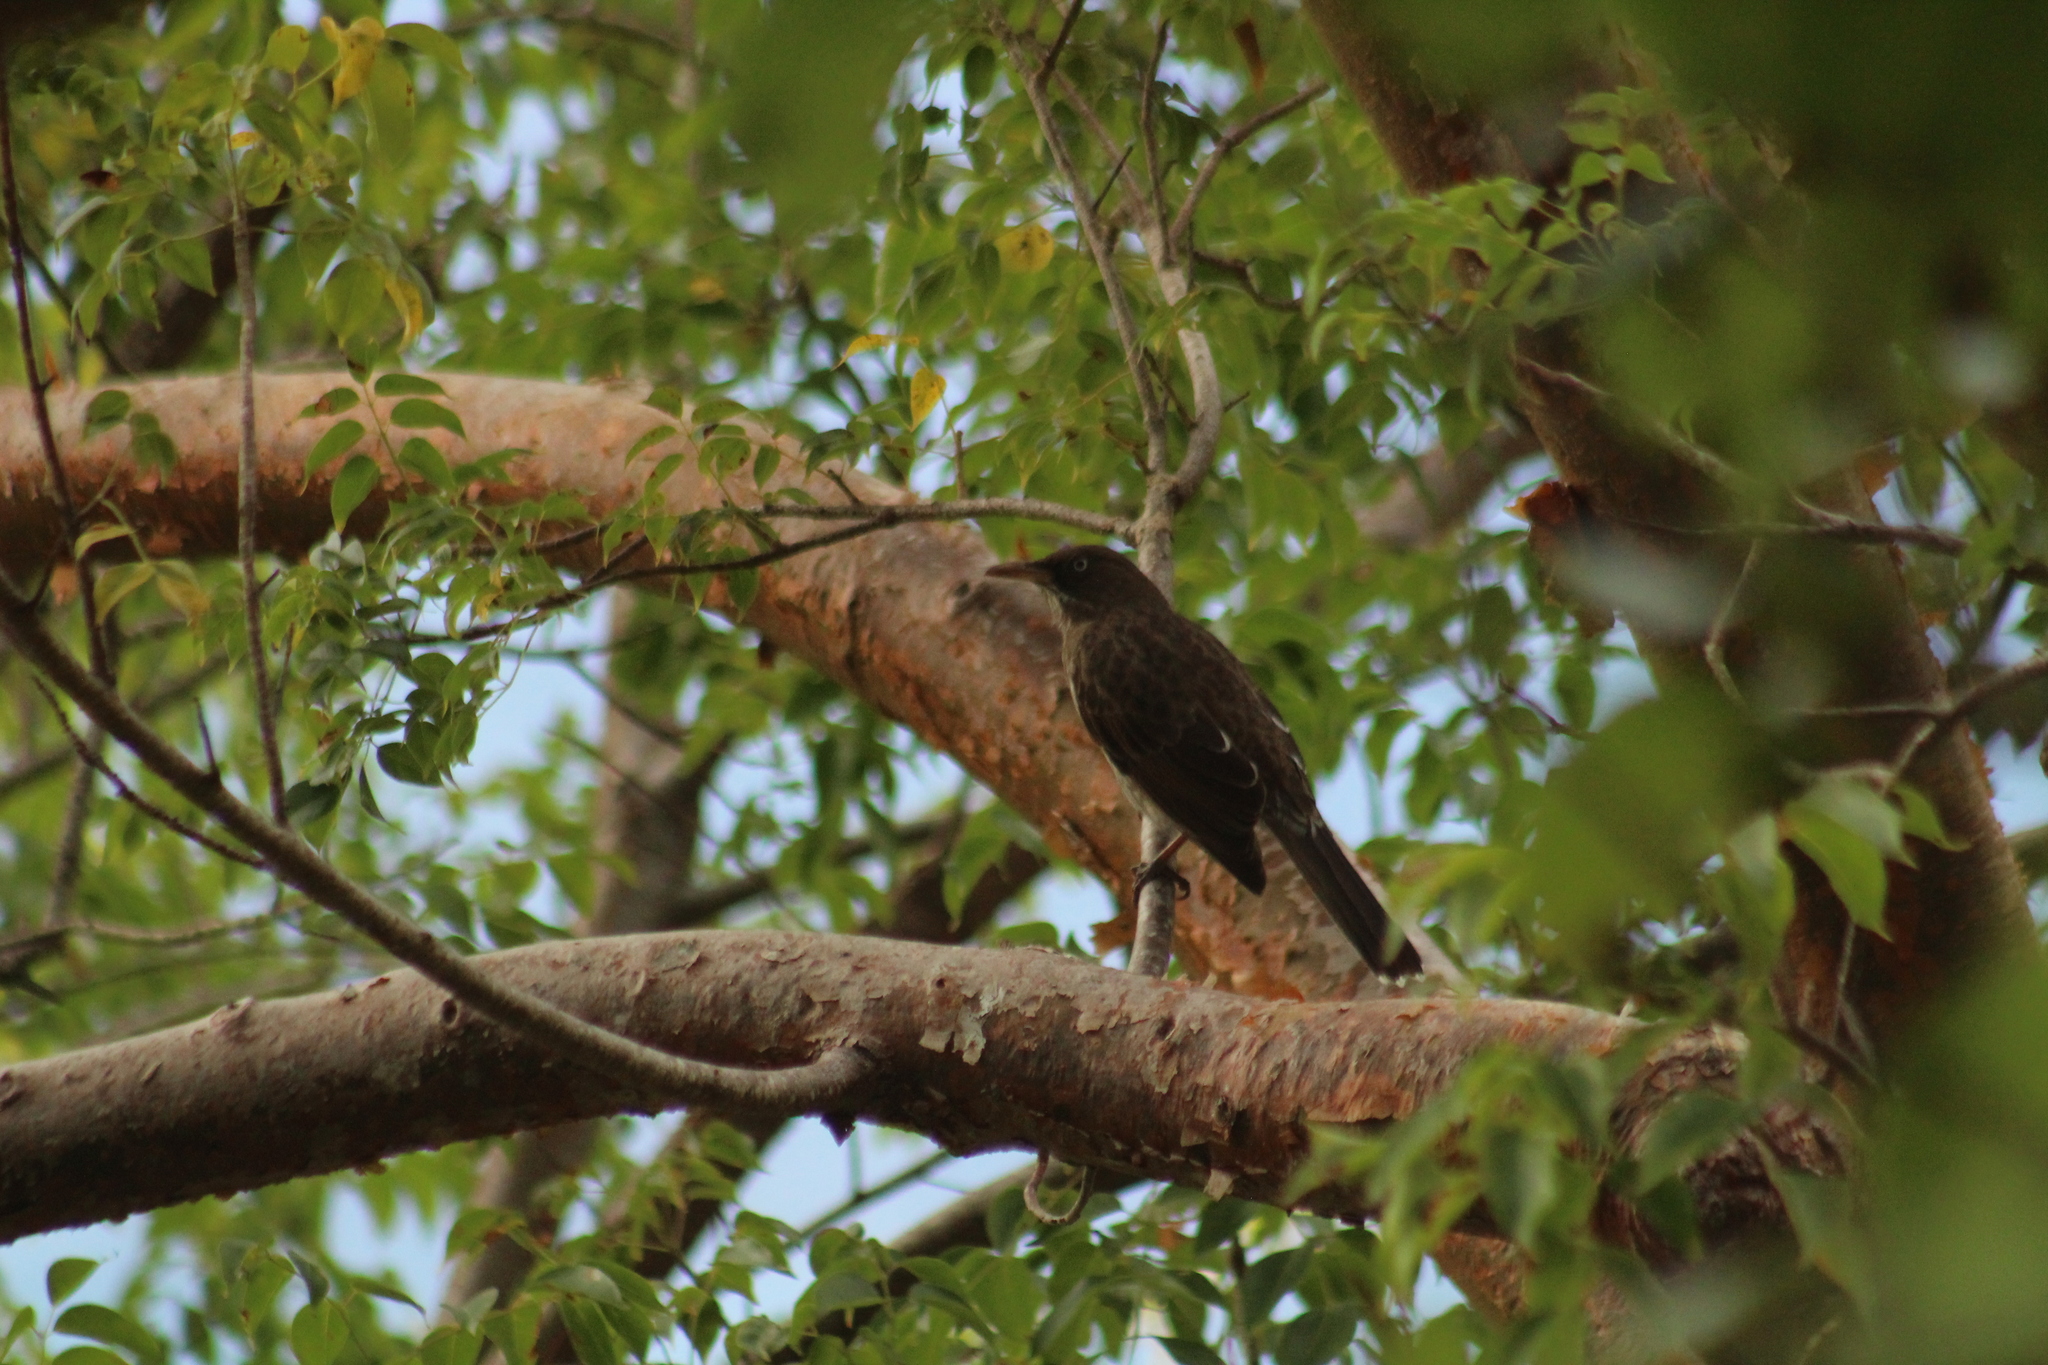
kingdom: Animalia
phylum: Chordata
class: Aves
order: Passeriformes
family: Mimidae
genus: Margarops
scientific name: Margarops fuscatus
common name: Pearly-eyed thrasher
